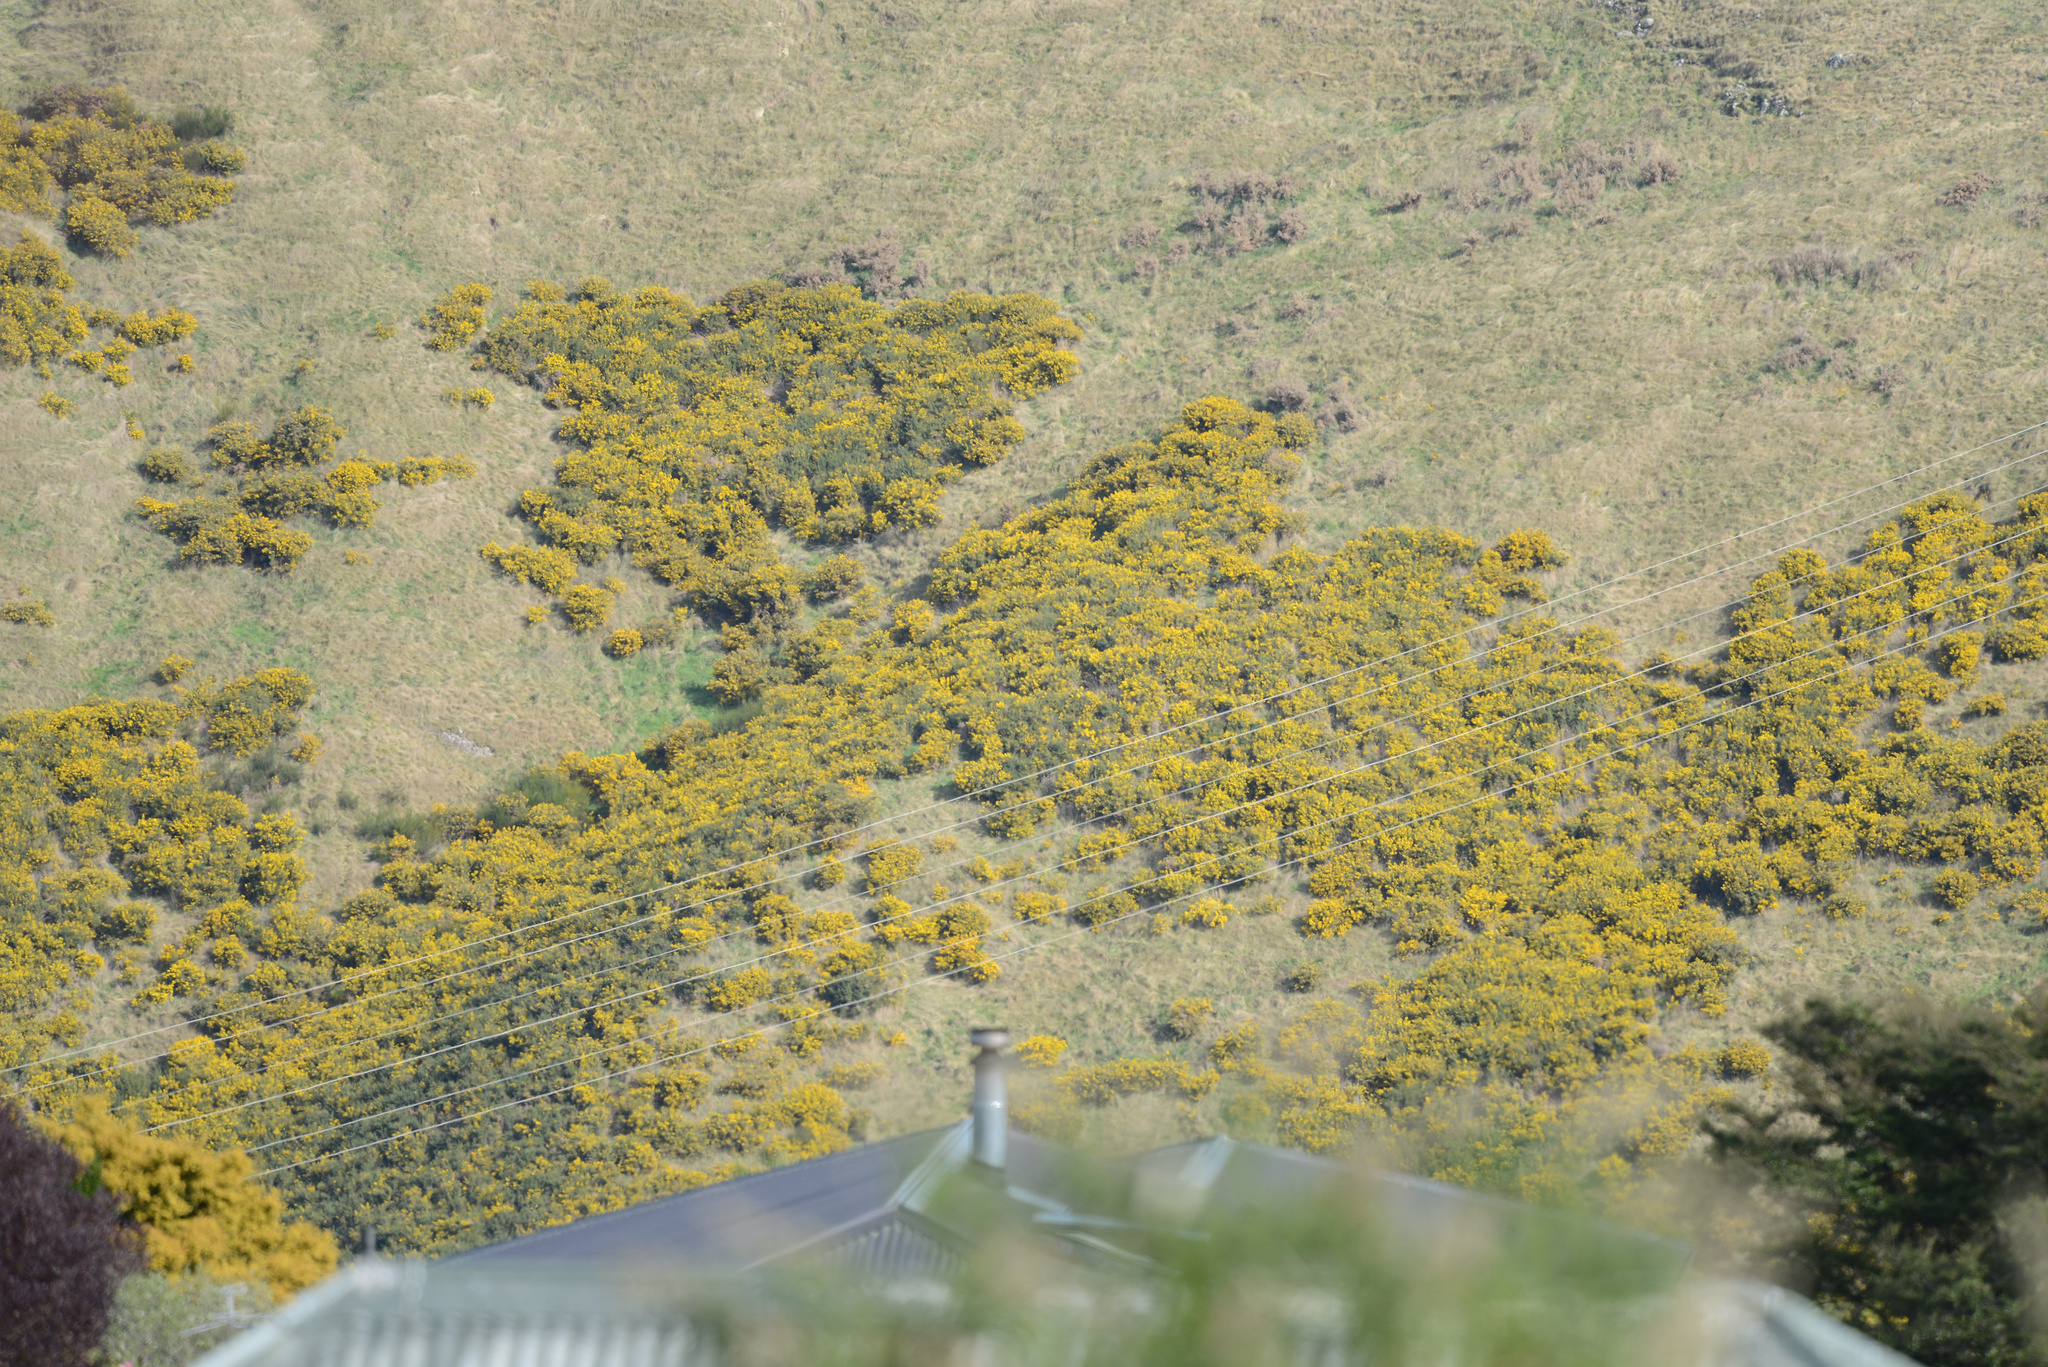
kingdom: Plantae
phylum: Tracheophyta
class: Magnoliopsida
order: Fabales
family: Fabaceae
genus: Ulex
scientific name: Ulex europaeus
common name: Common gorse
